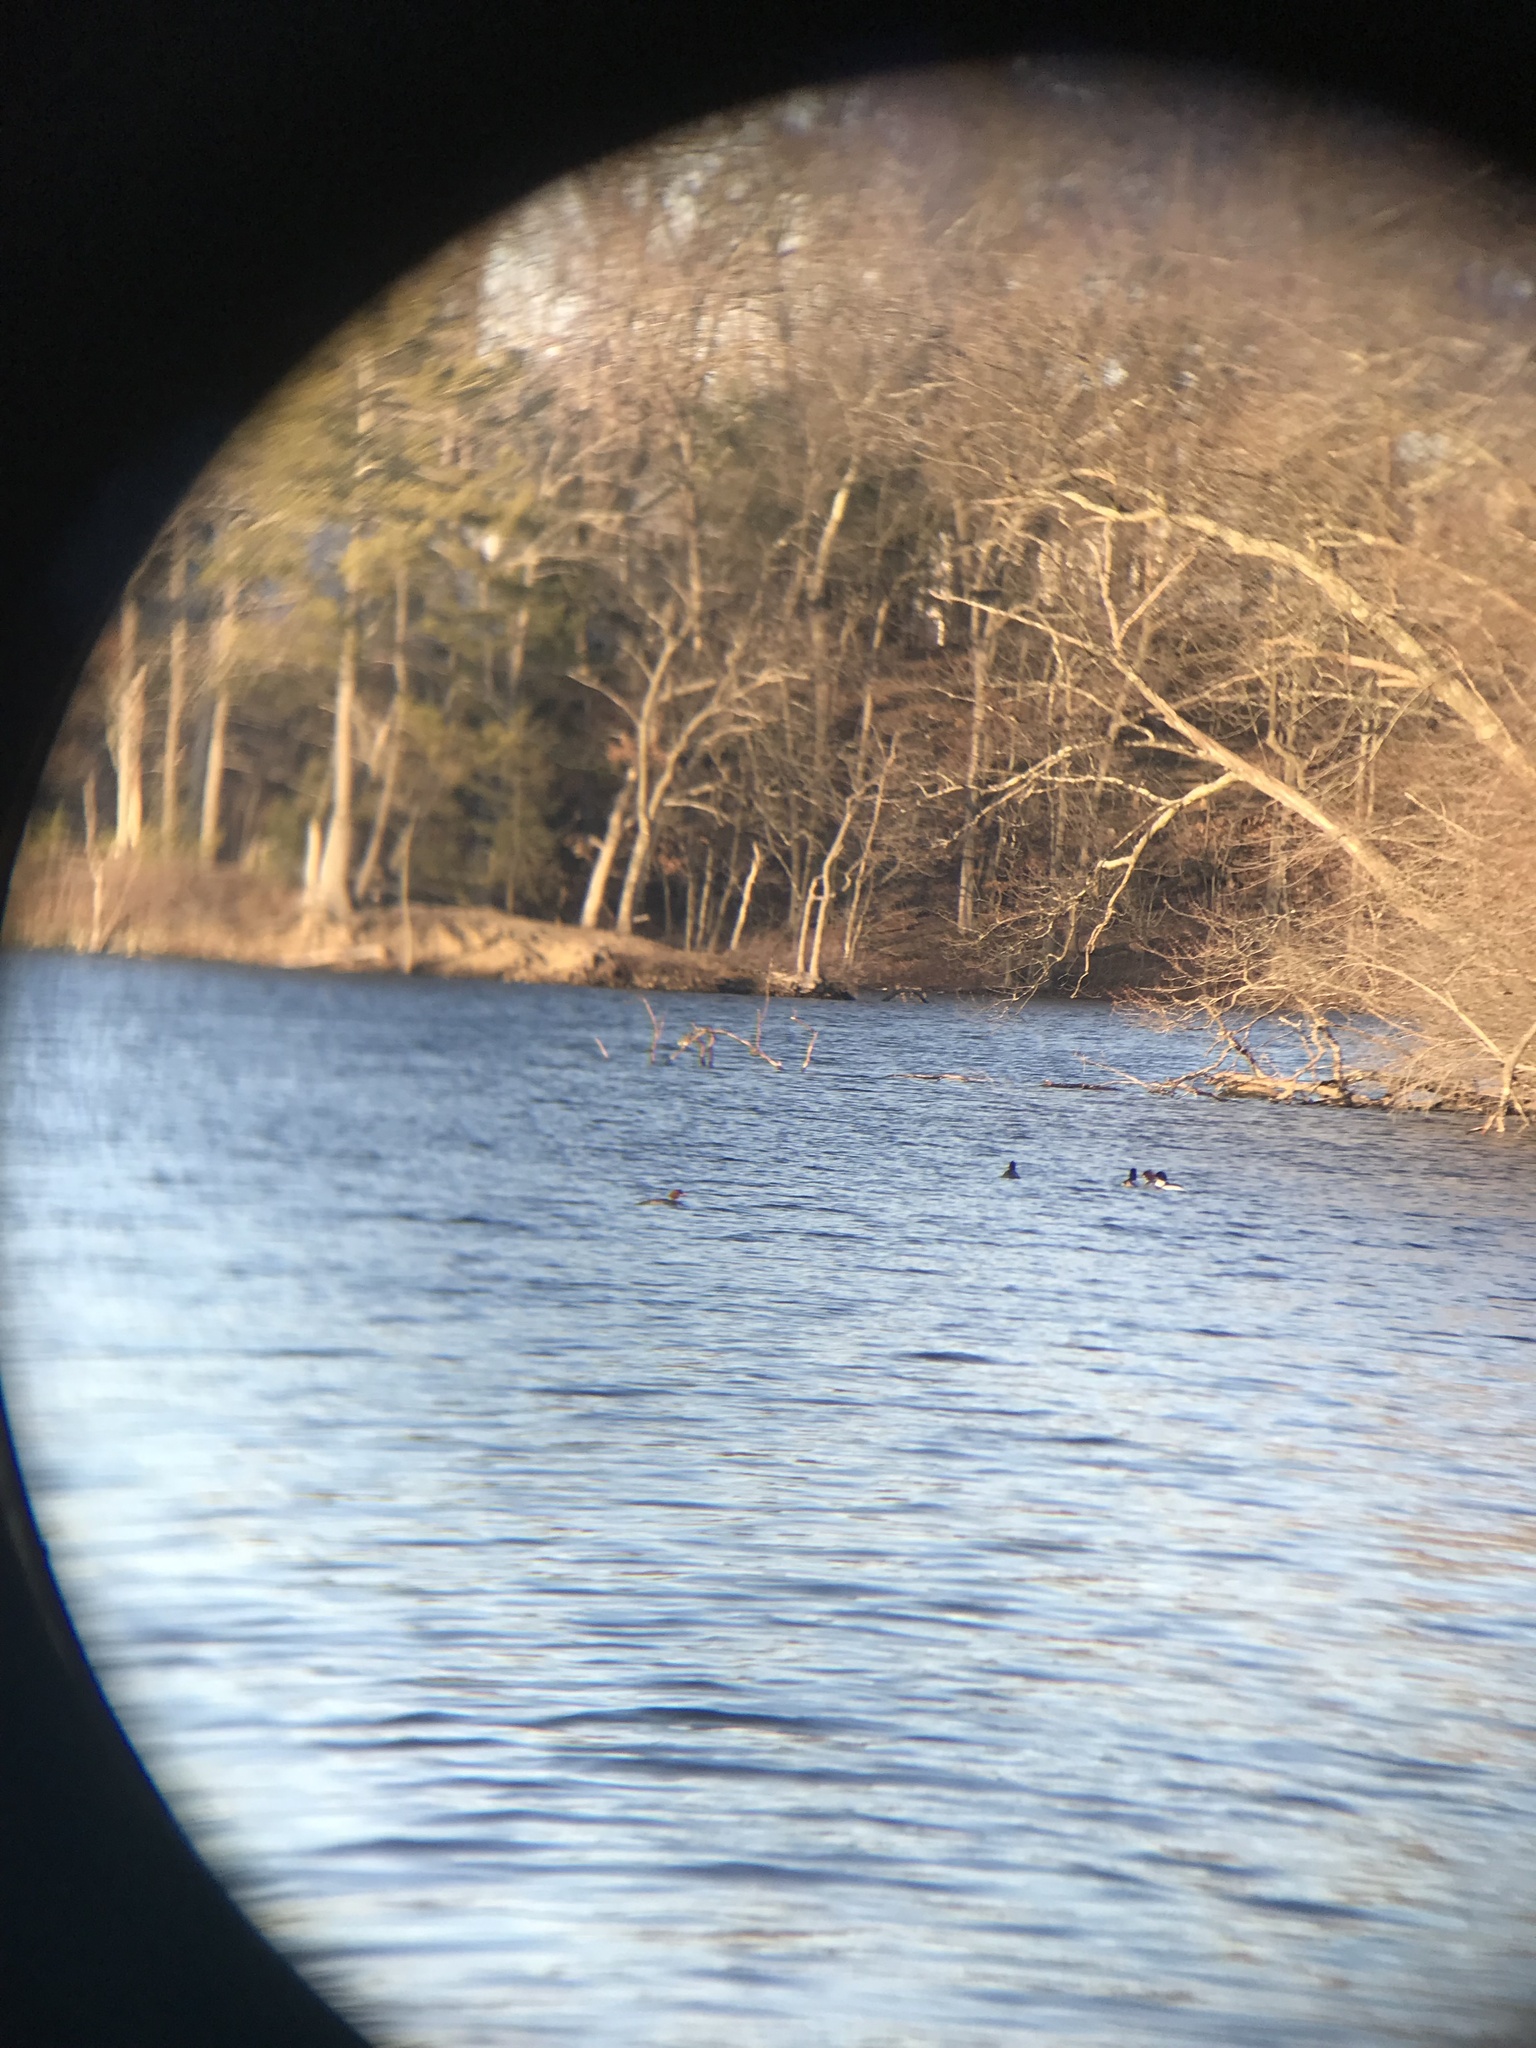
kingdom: Animalia
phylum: Chordata
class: Aves
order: Anseriformes
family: Anatidae
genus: Mergus
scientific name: Mergus merganser
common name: Common merganser
